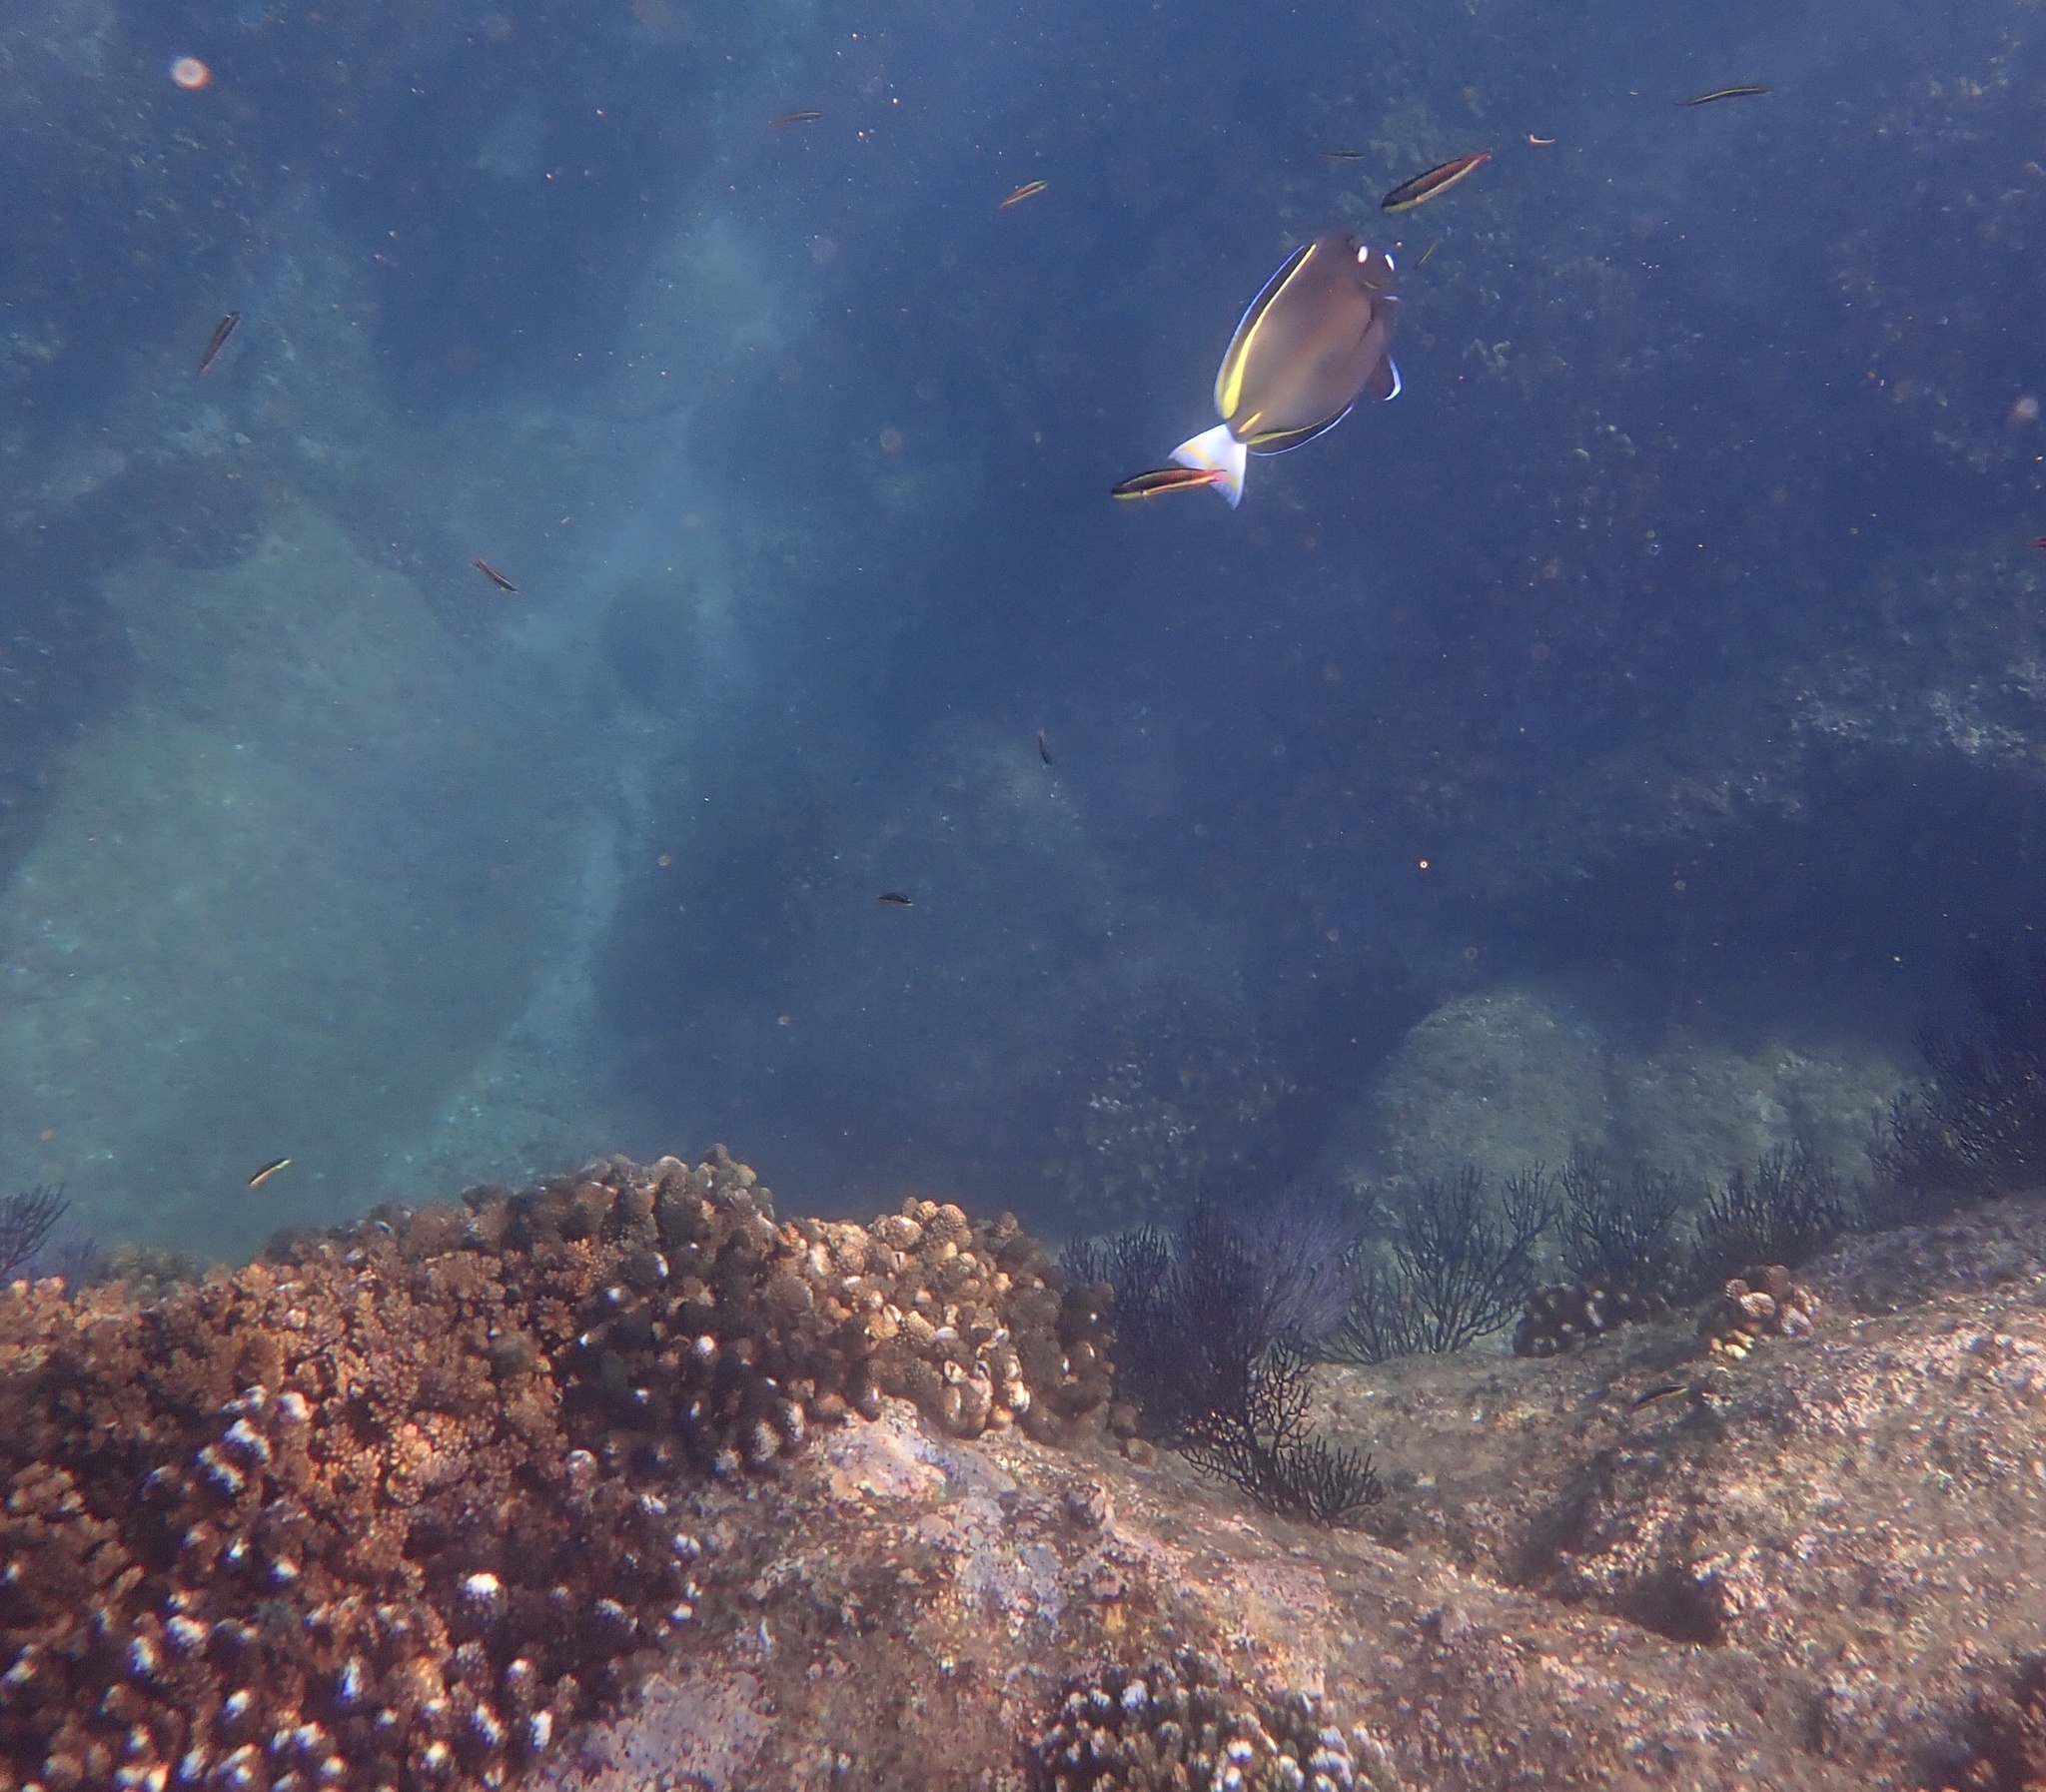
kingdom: Animalia
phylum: Chordata
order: Perciformes
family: Acanthuridae
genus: Acanthurus
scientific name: Acanthurus nigricans
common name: Whitecheek surgeonfish
